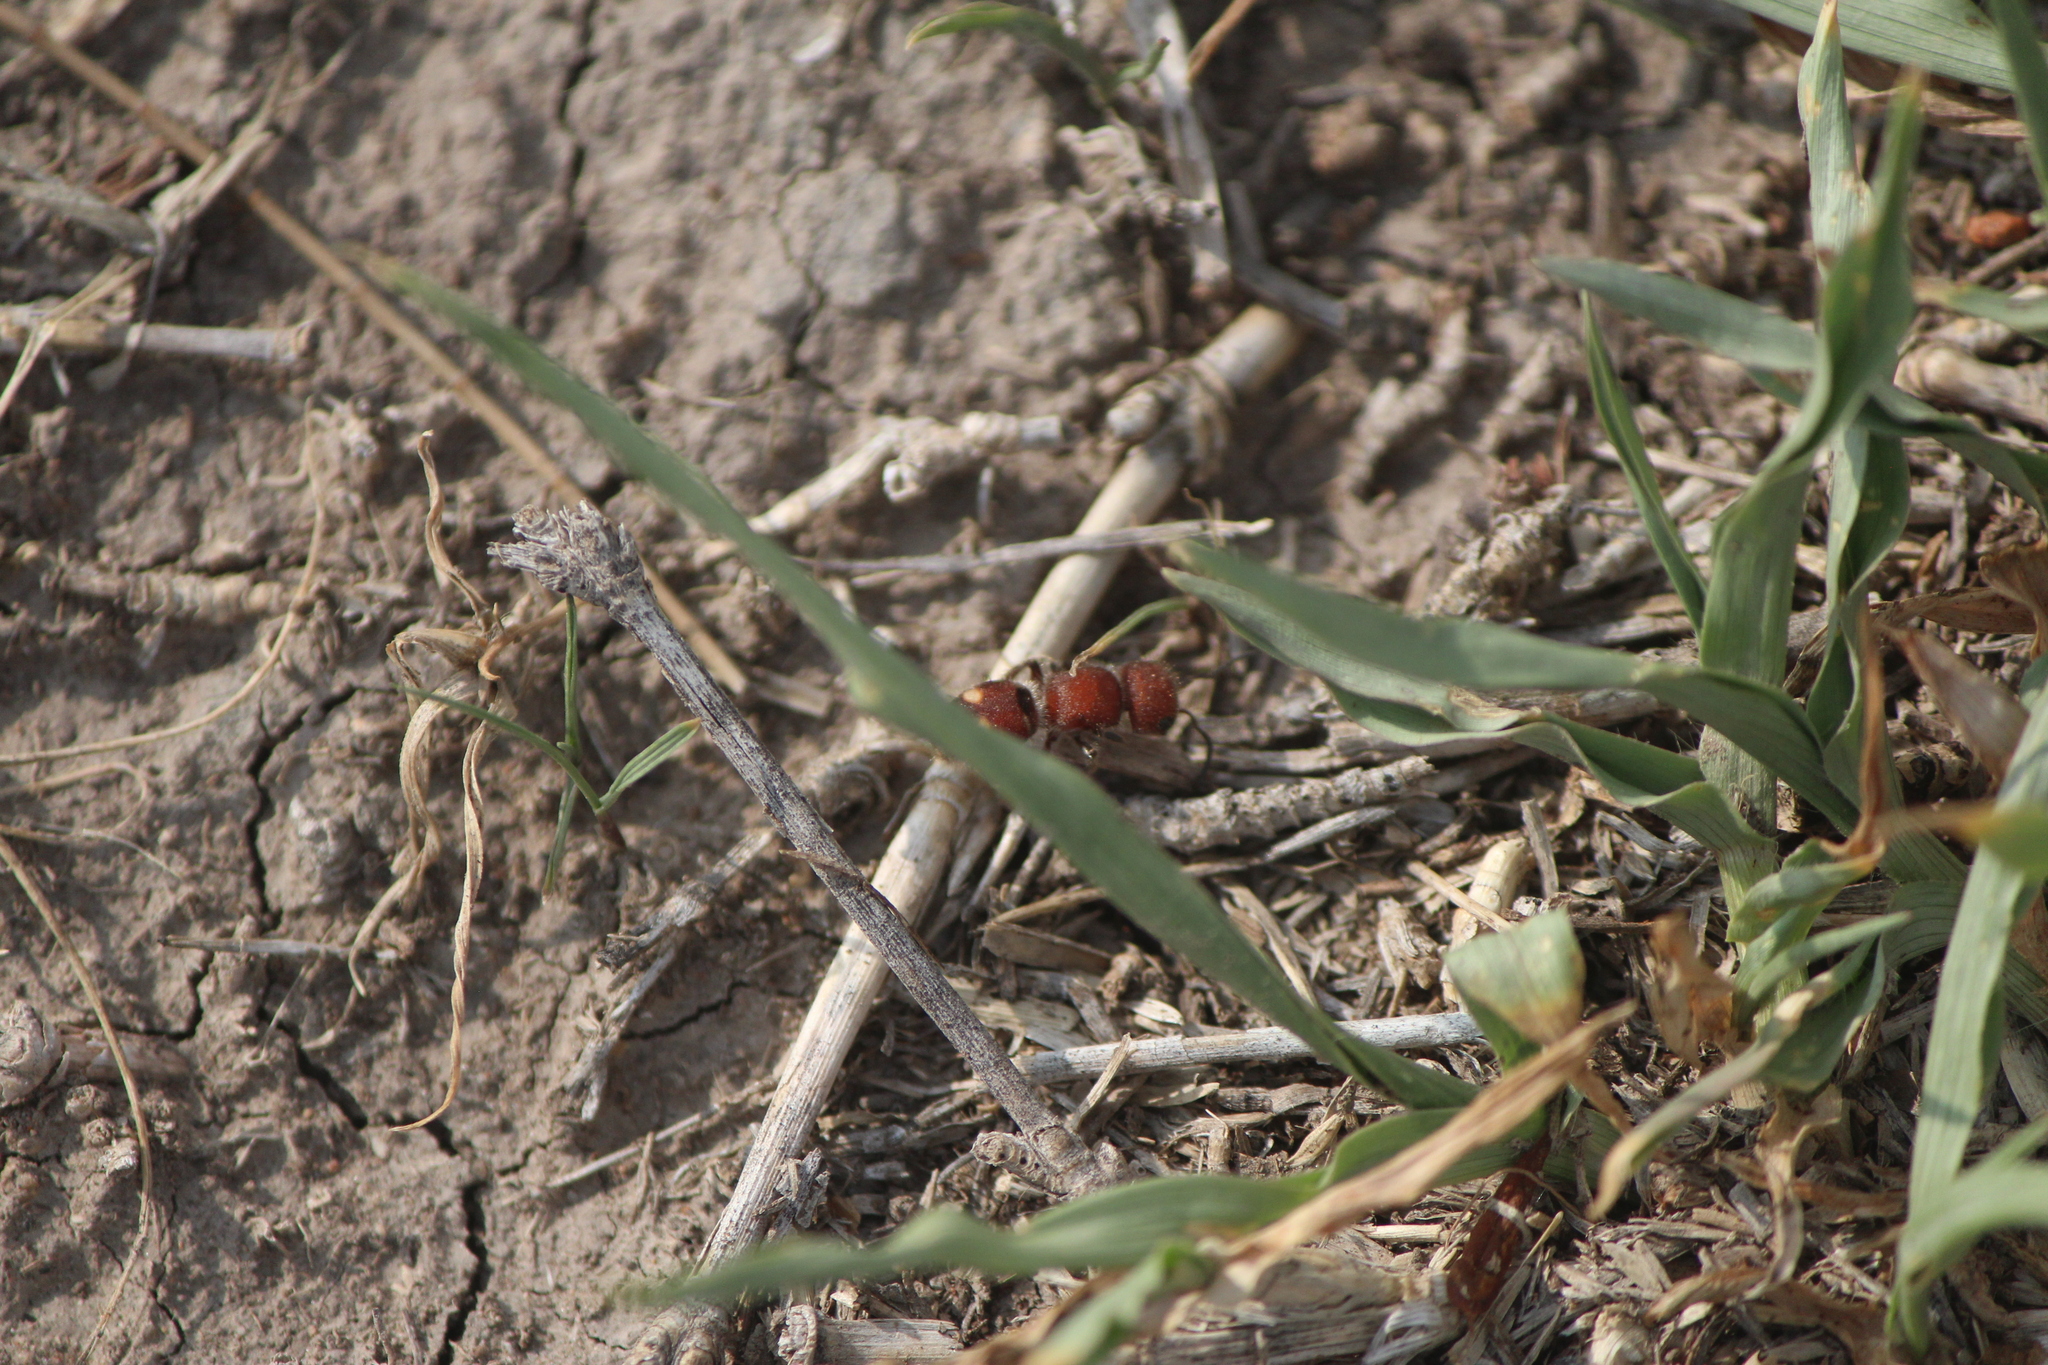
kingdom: Animalia
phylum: Arthropoda
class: Insecta
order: Hymenoptera
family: Mutillidae
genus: Pseudomethoca
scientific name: Pseudomethoca
